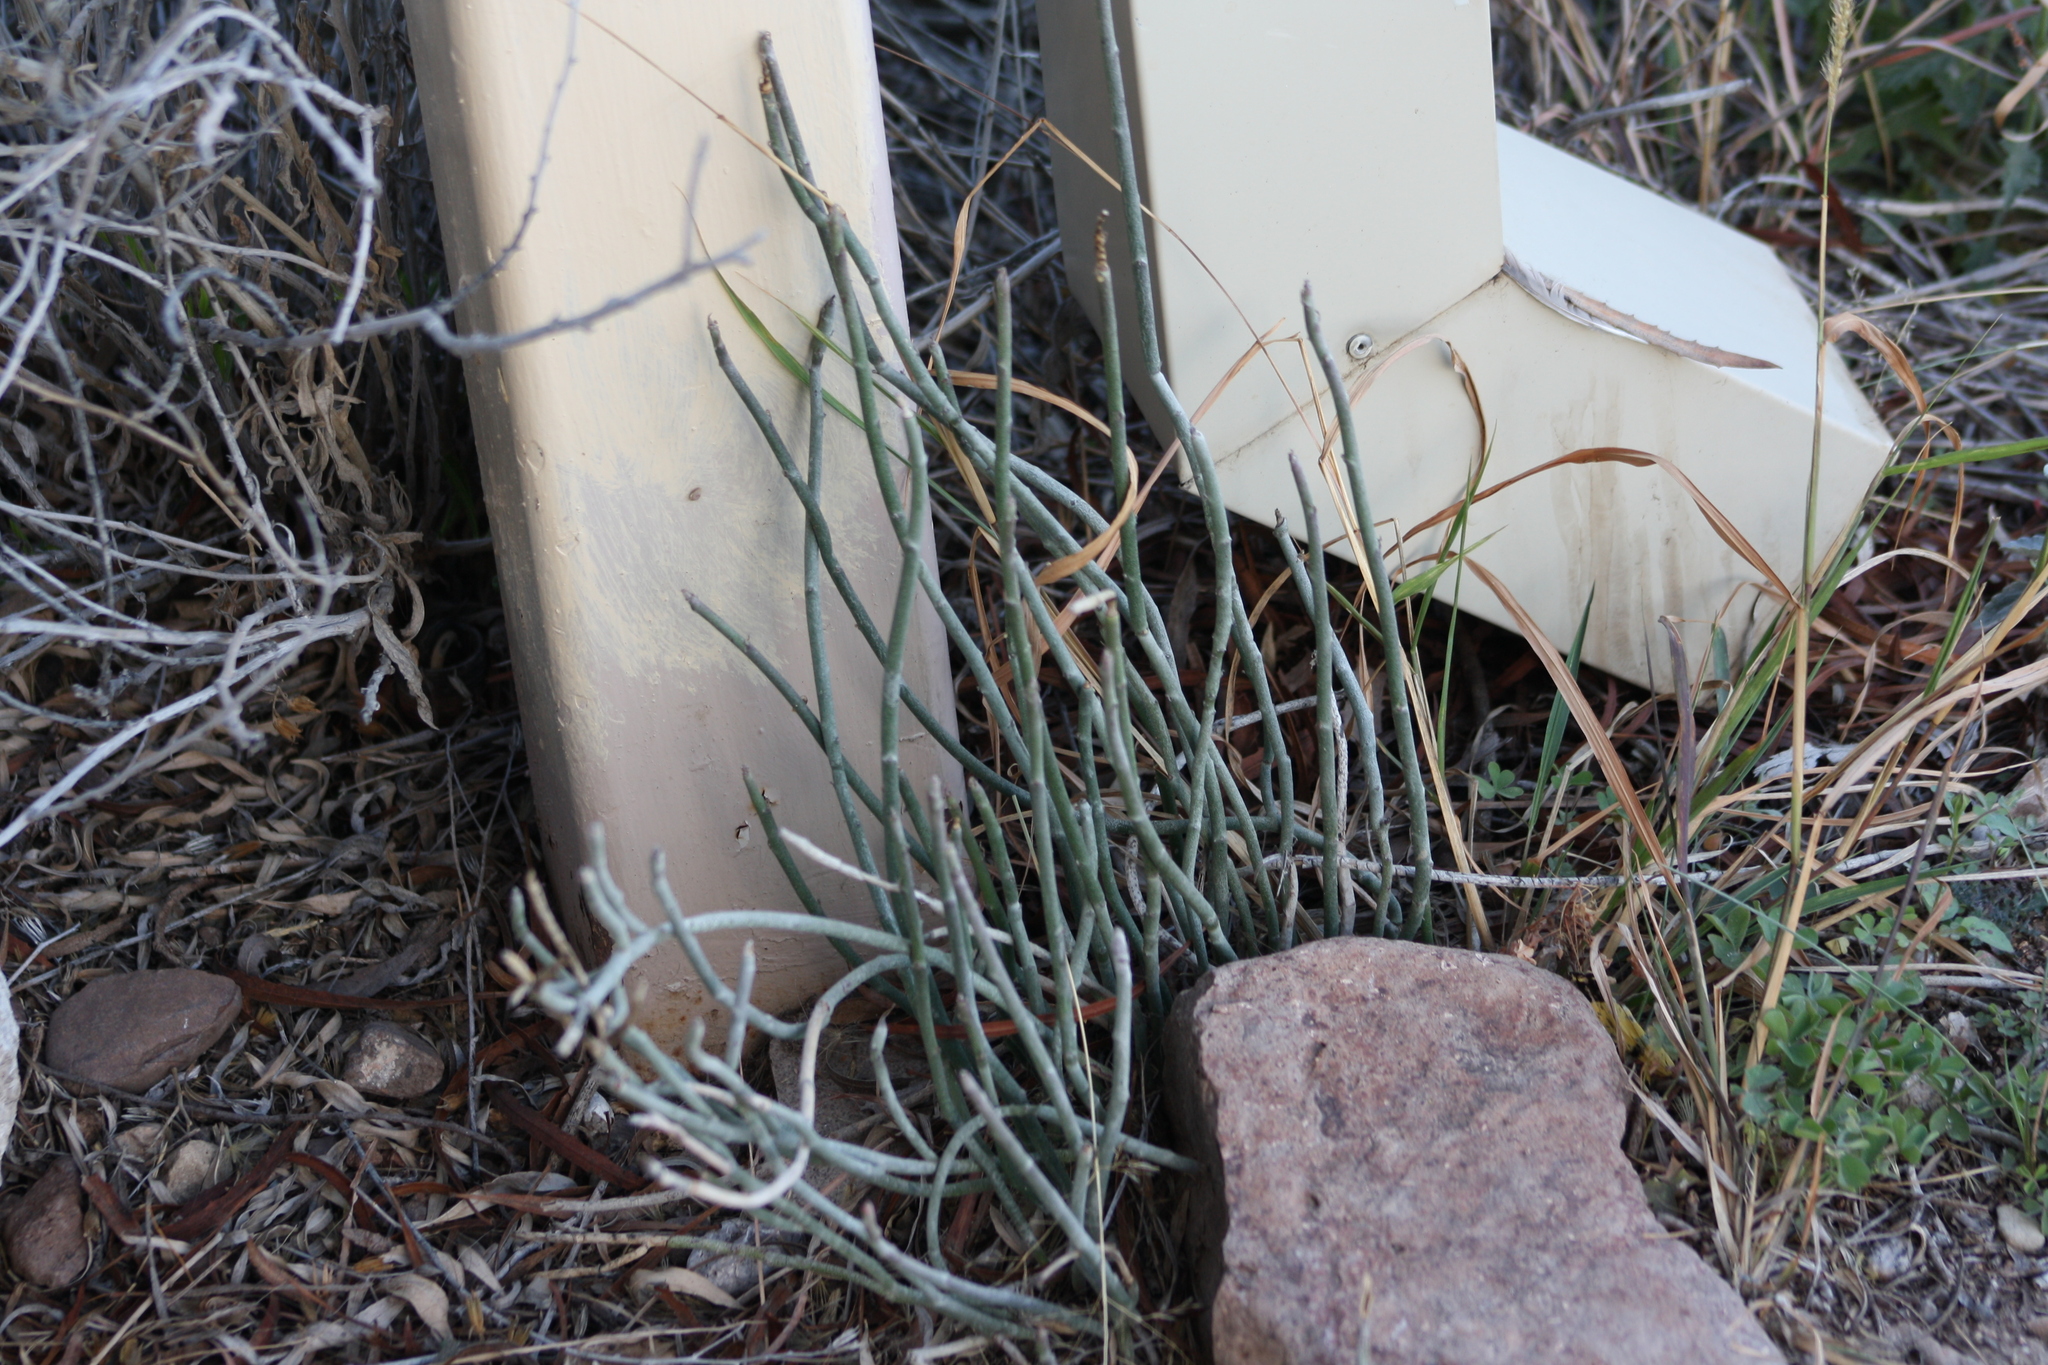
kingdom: Plantae
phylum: Tracheophyta
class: Magnoliopsida
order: Malpighiales
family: Euphorbiaceae
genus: Euphorbia
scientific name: Euphorbia antisyphilitica
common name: Candelilla
